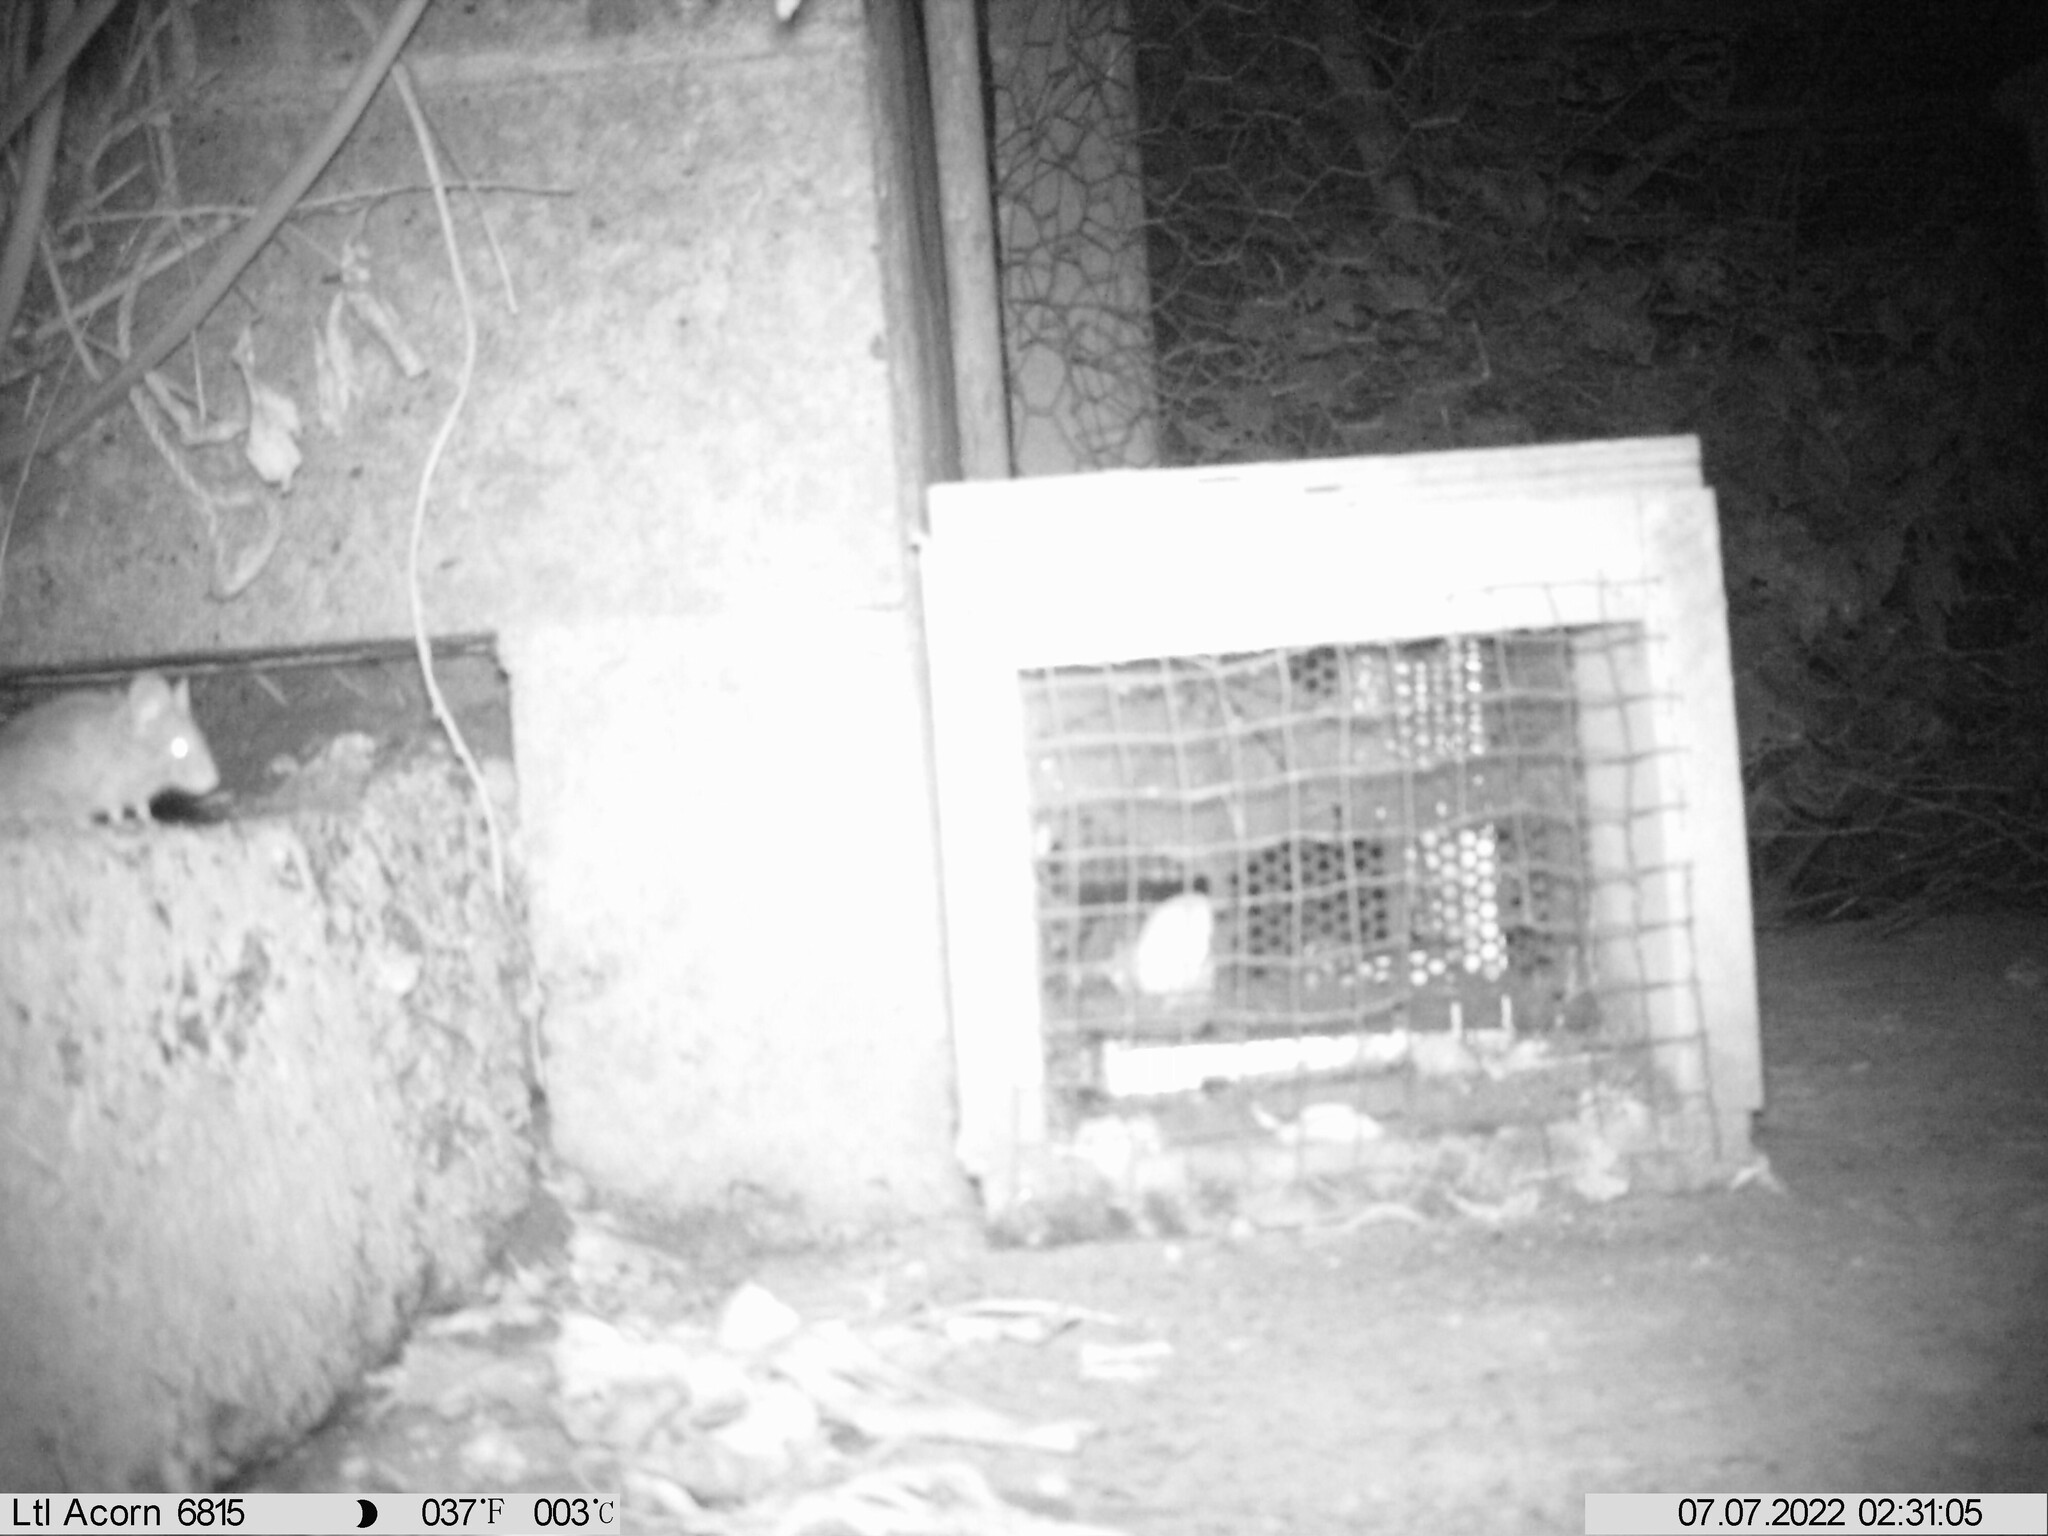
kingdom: Animalia
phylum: Chordata
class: Mammalia
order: Rodentia
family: Muridae
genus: Mus
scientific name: Mus musculus
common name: House mouse
